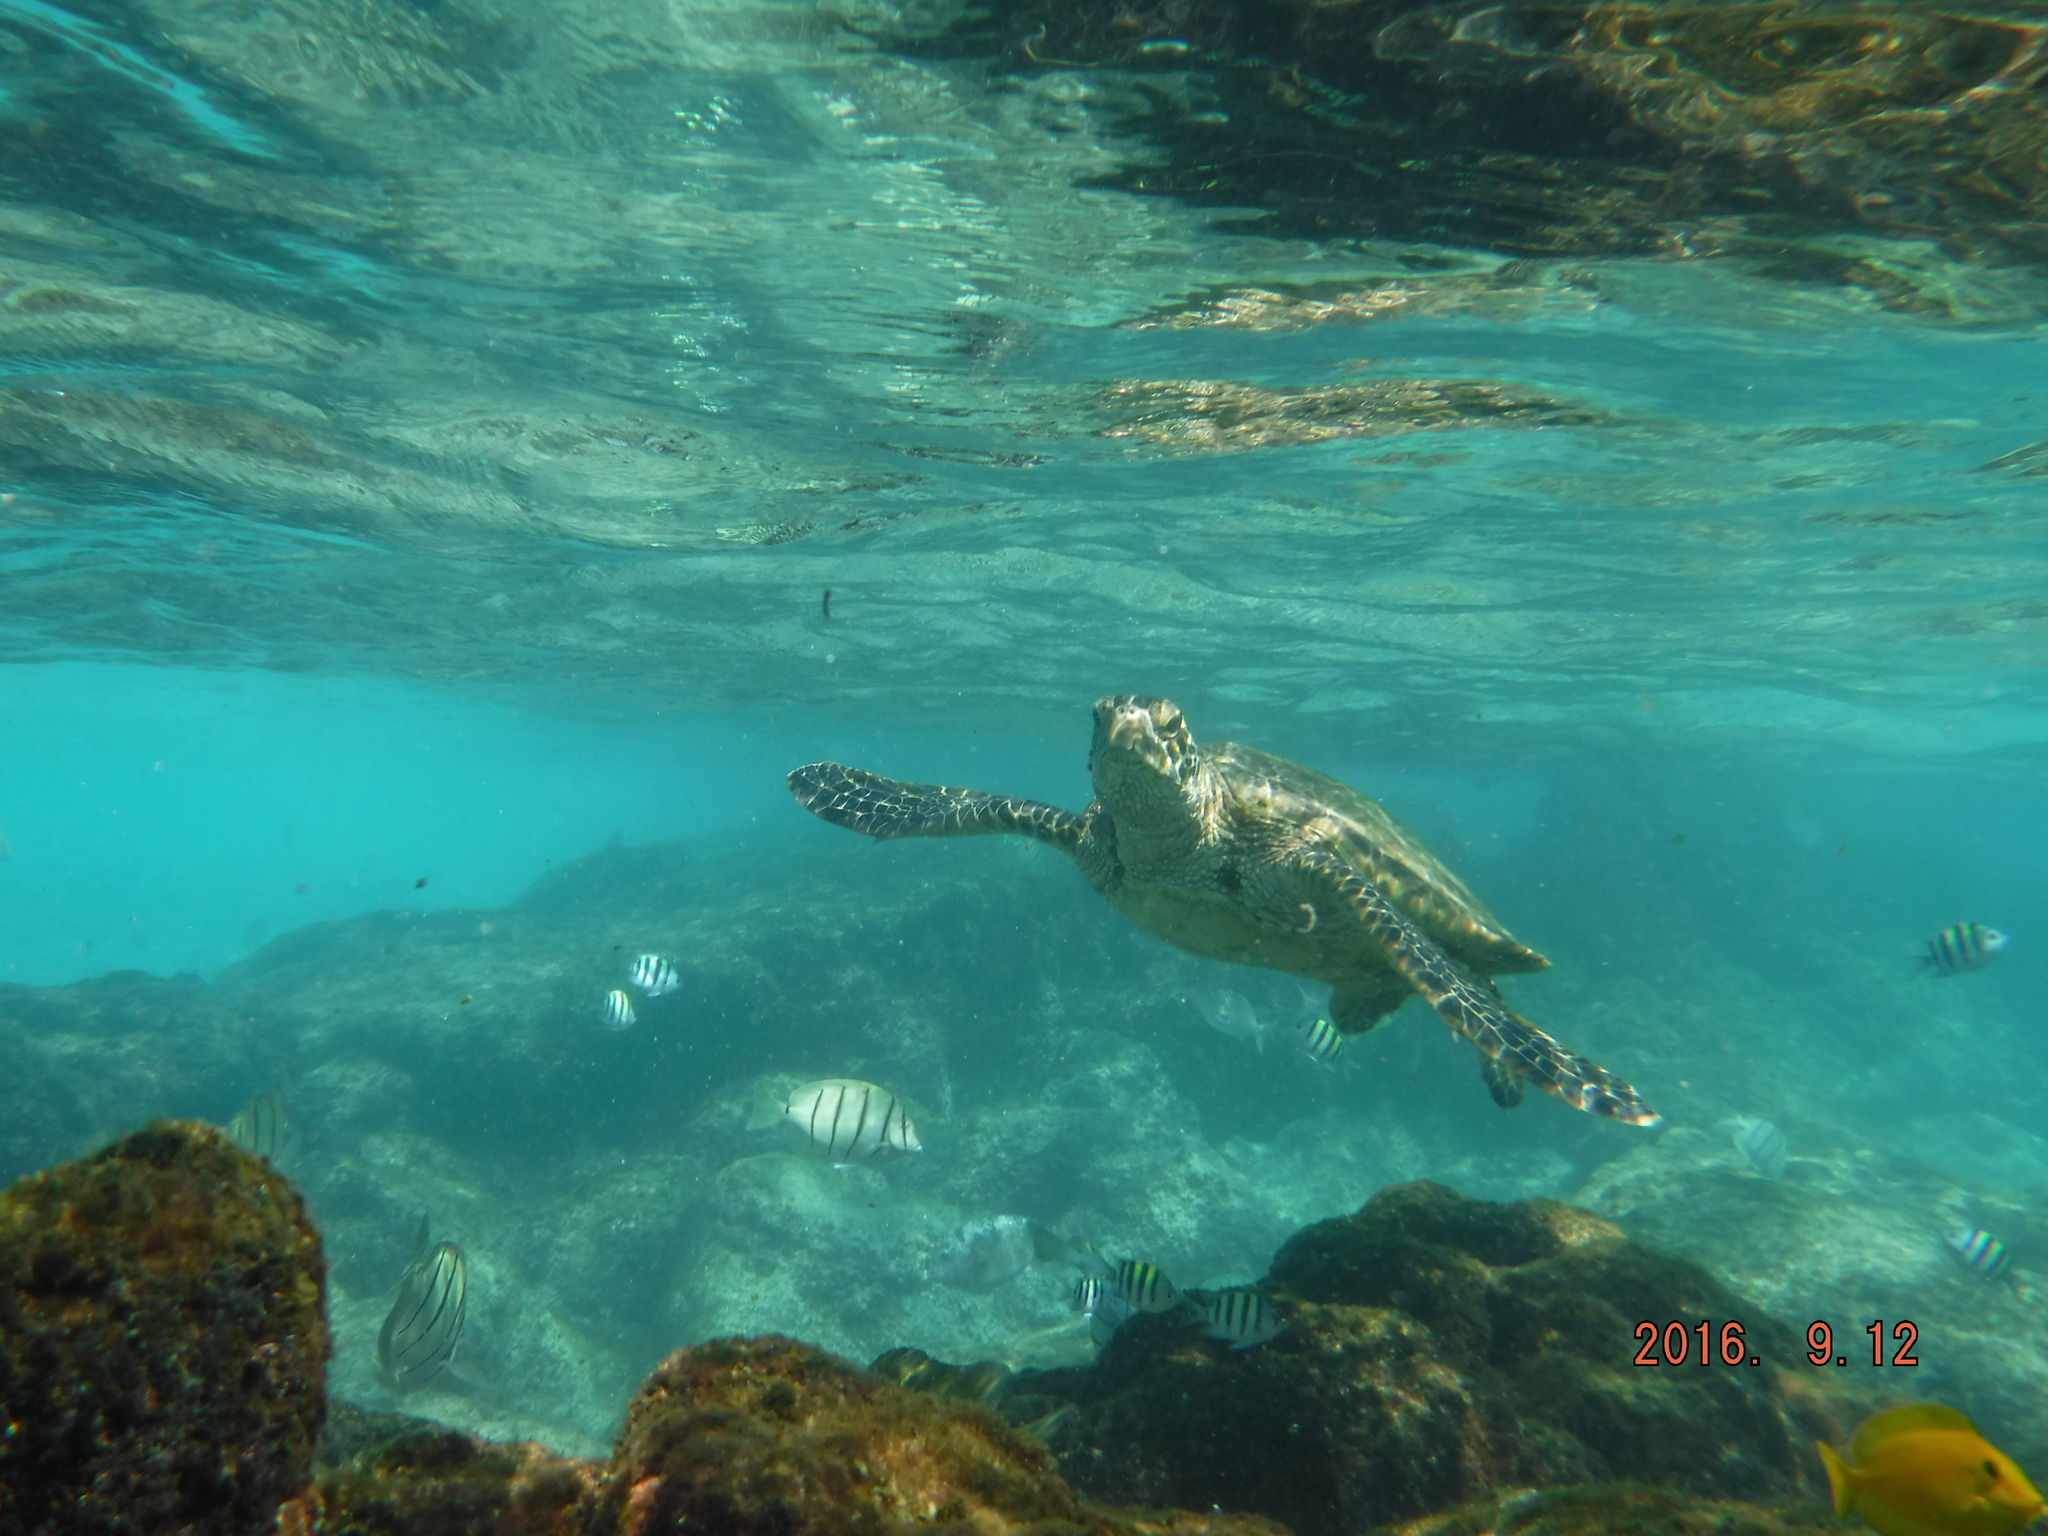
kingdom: Animalia
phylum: Chordata
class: Testudines
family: Cheloniidae
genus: Chelonia
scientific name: Chelonia mydas
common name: Green turtle
